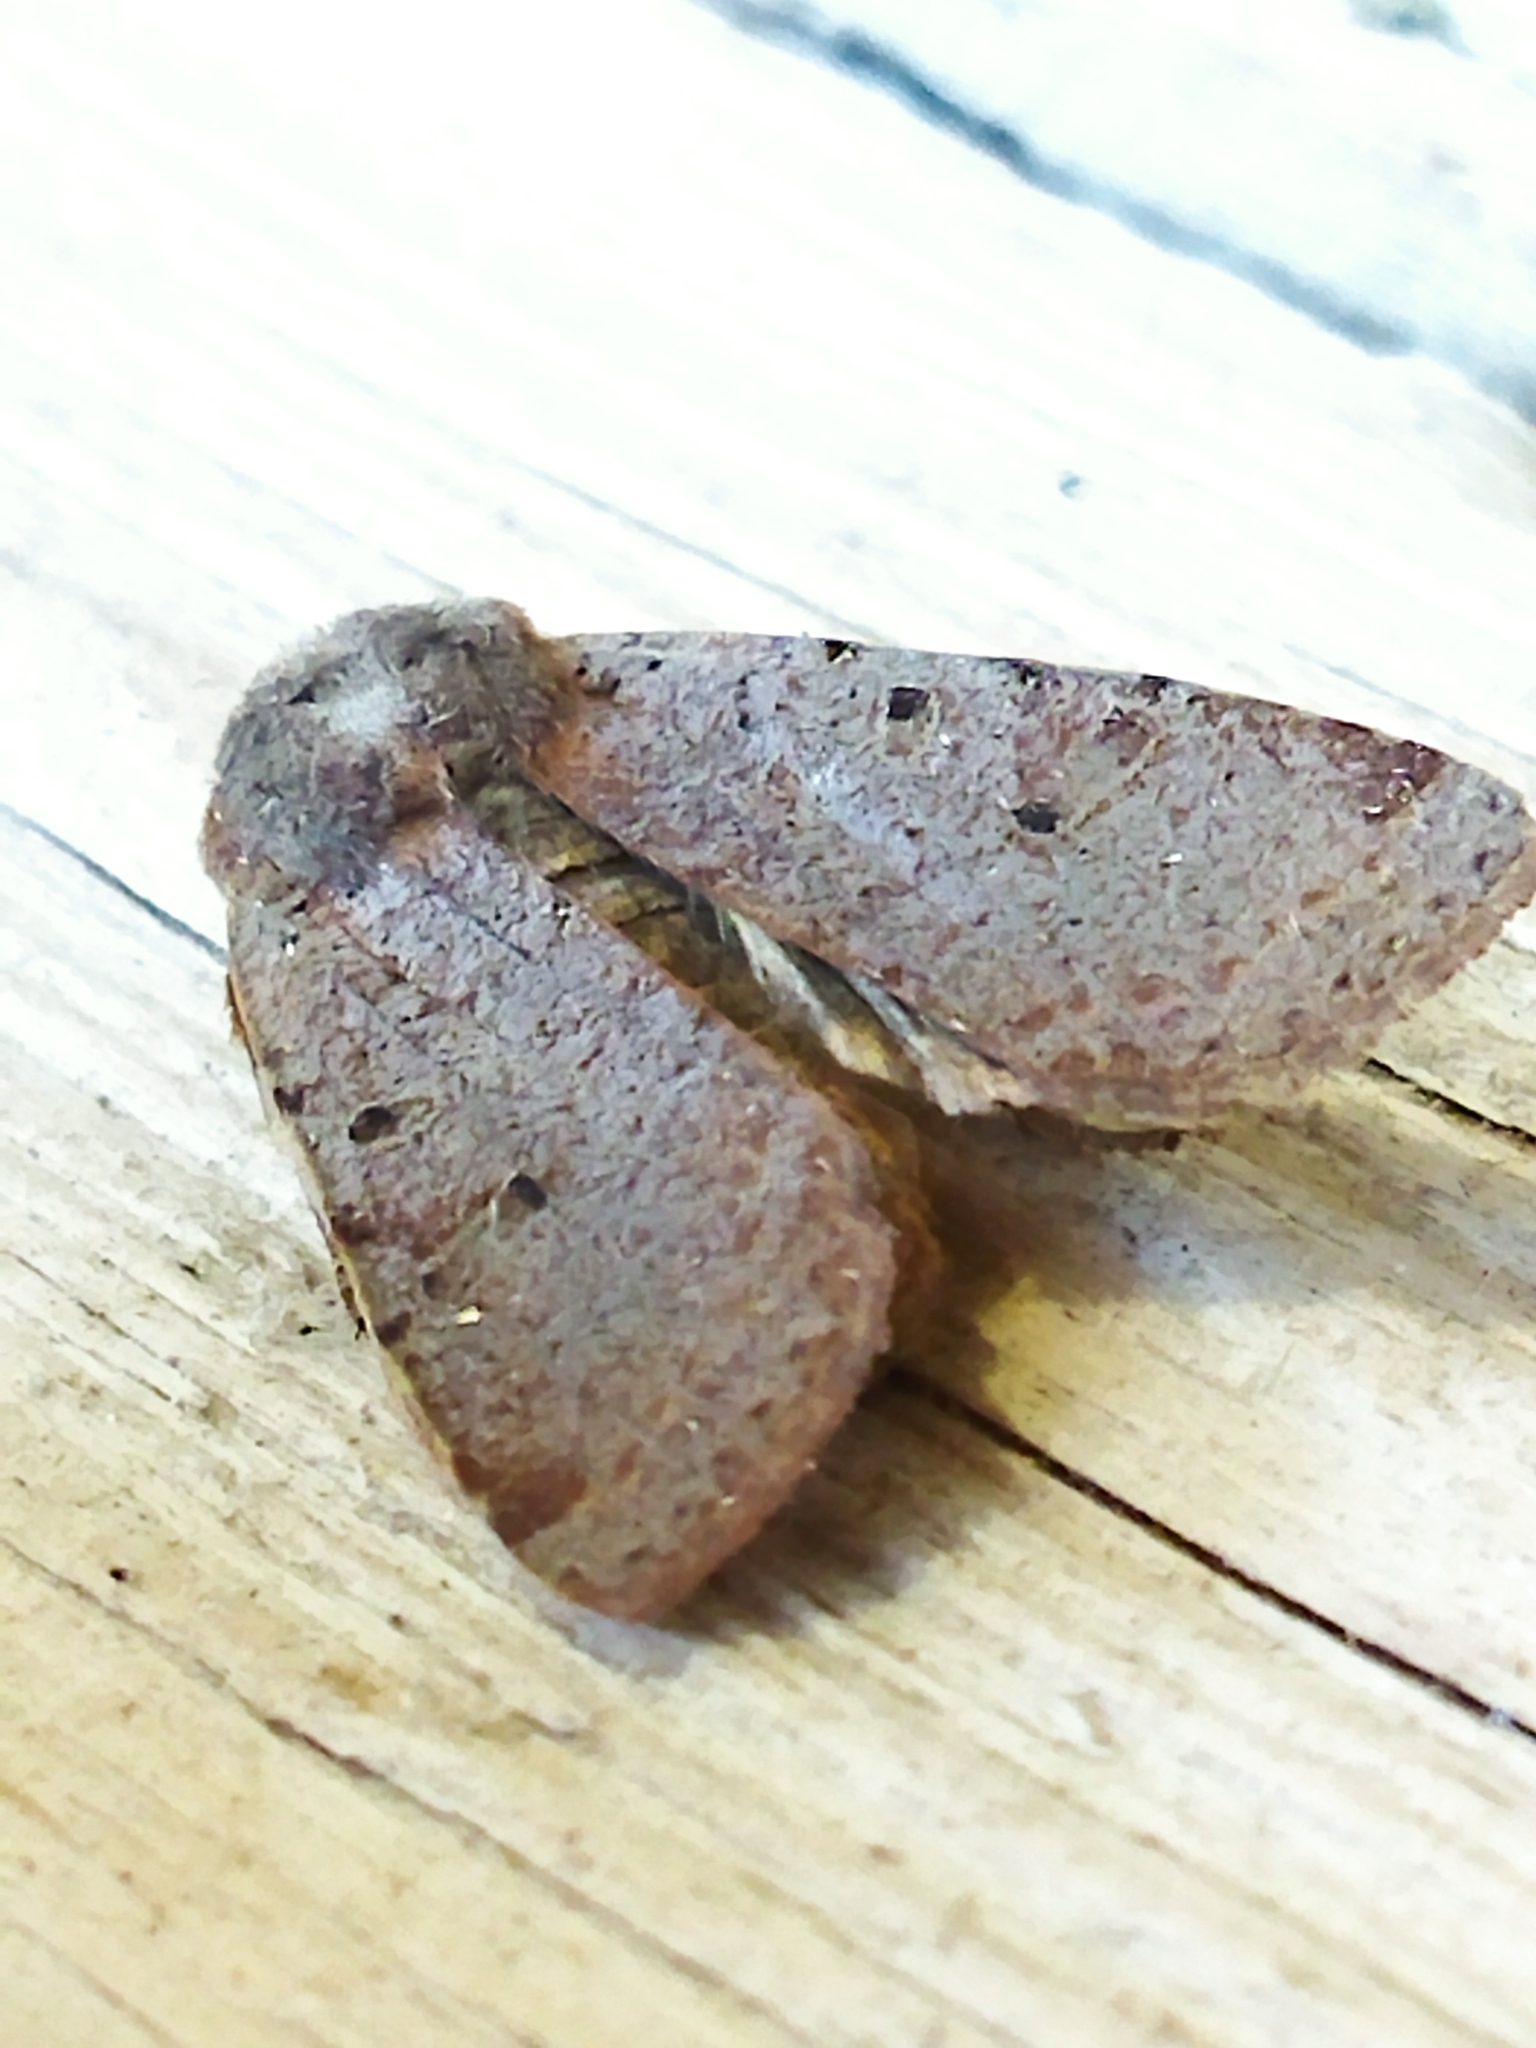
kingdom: Animalia
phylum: Arthropoda
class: Insecta
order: Lepidoptera
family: Noctuidae
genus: Agrochola
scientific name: Agrochola lychnidis
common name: Beaded chestnut
